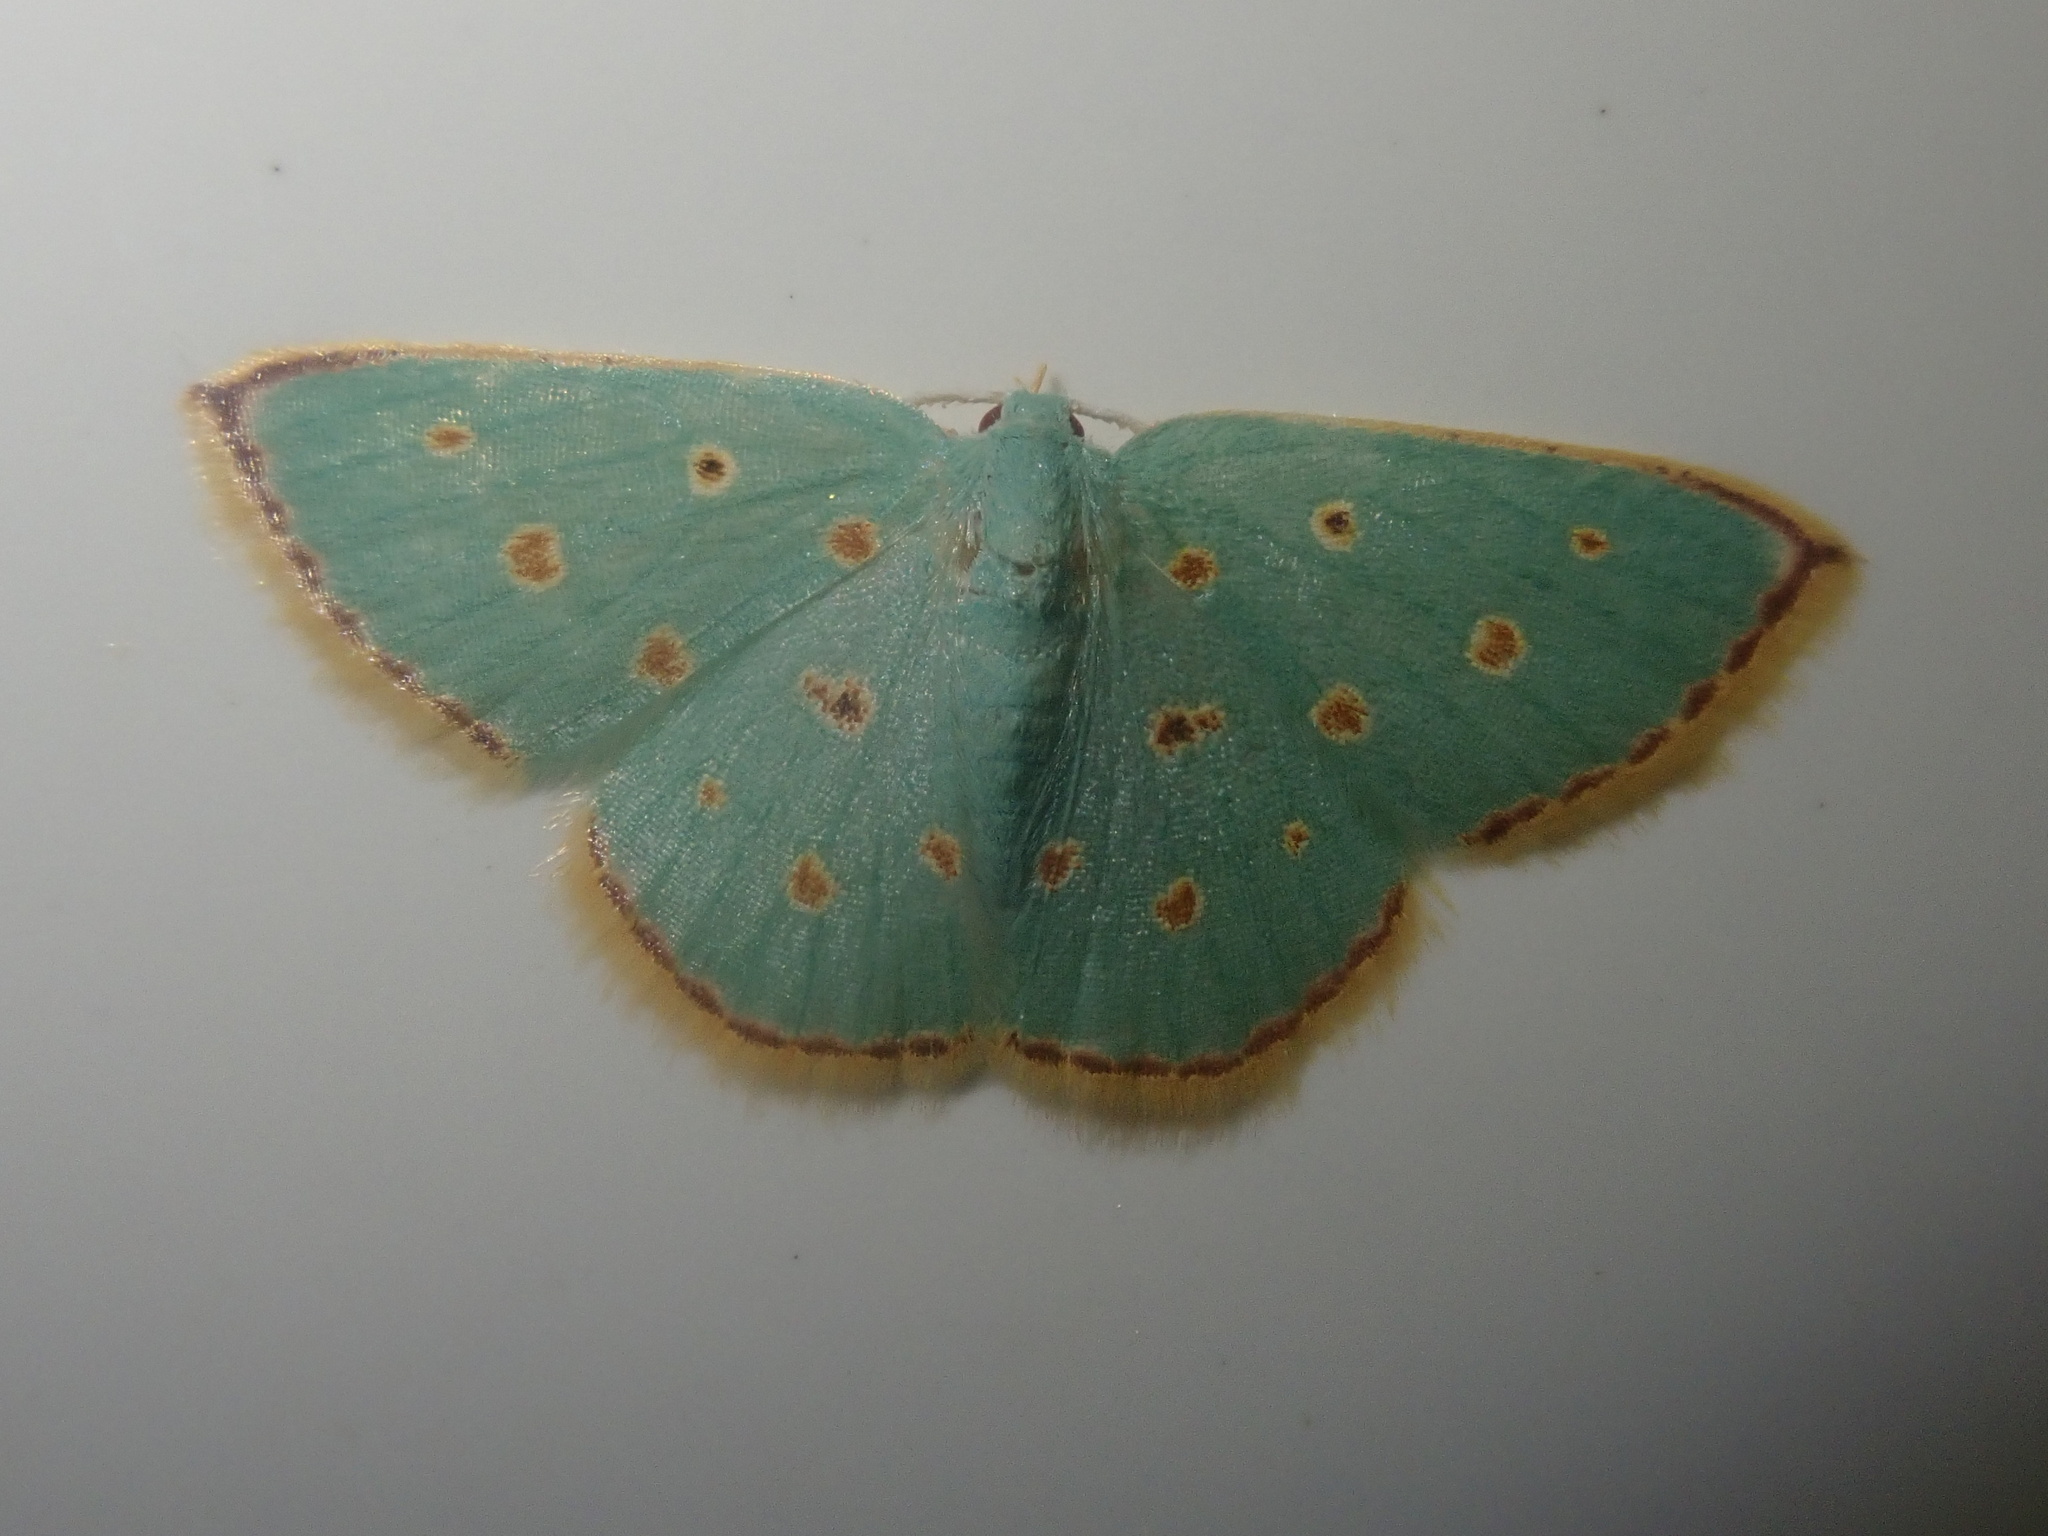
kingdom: Animalia
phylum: Arthropoda
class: Insecta
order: Lepidoptera
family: Geometridae
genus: Comostolopsis
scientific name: Comostolopsis stillata
